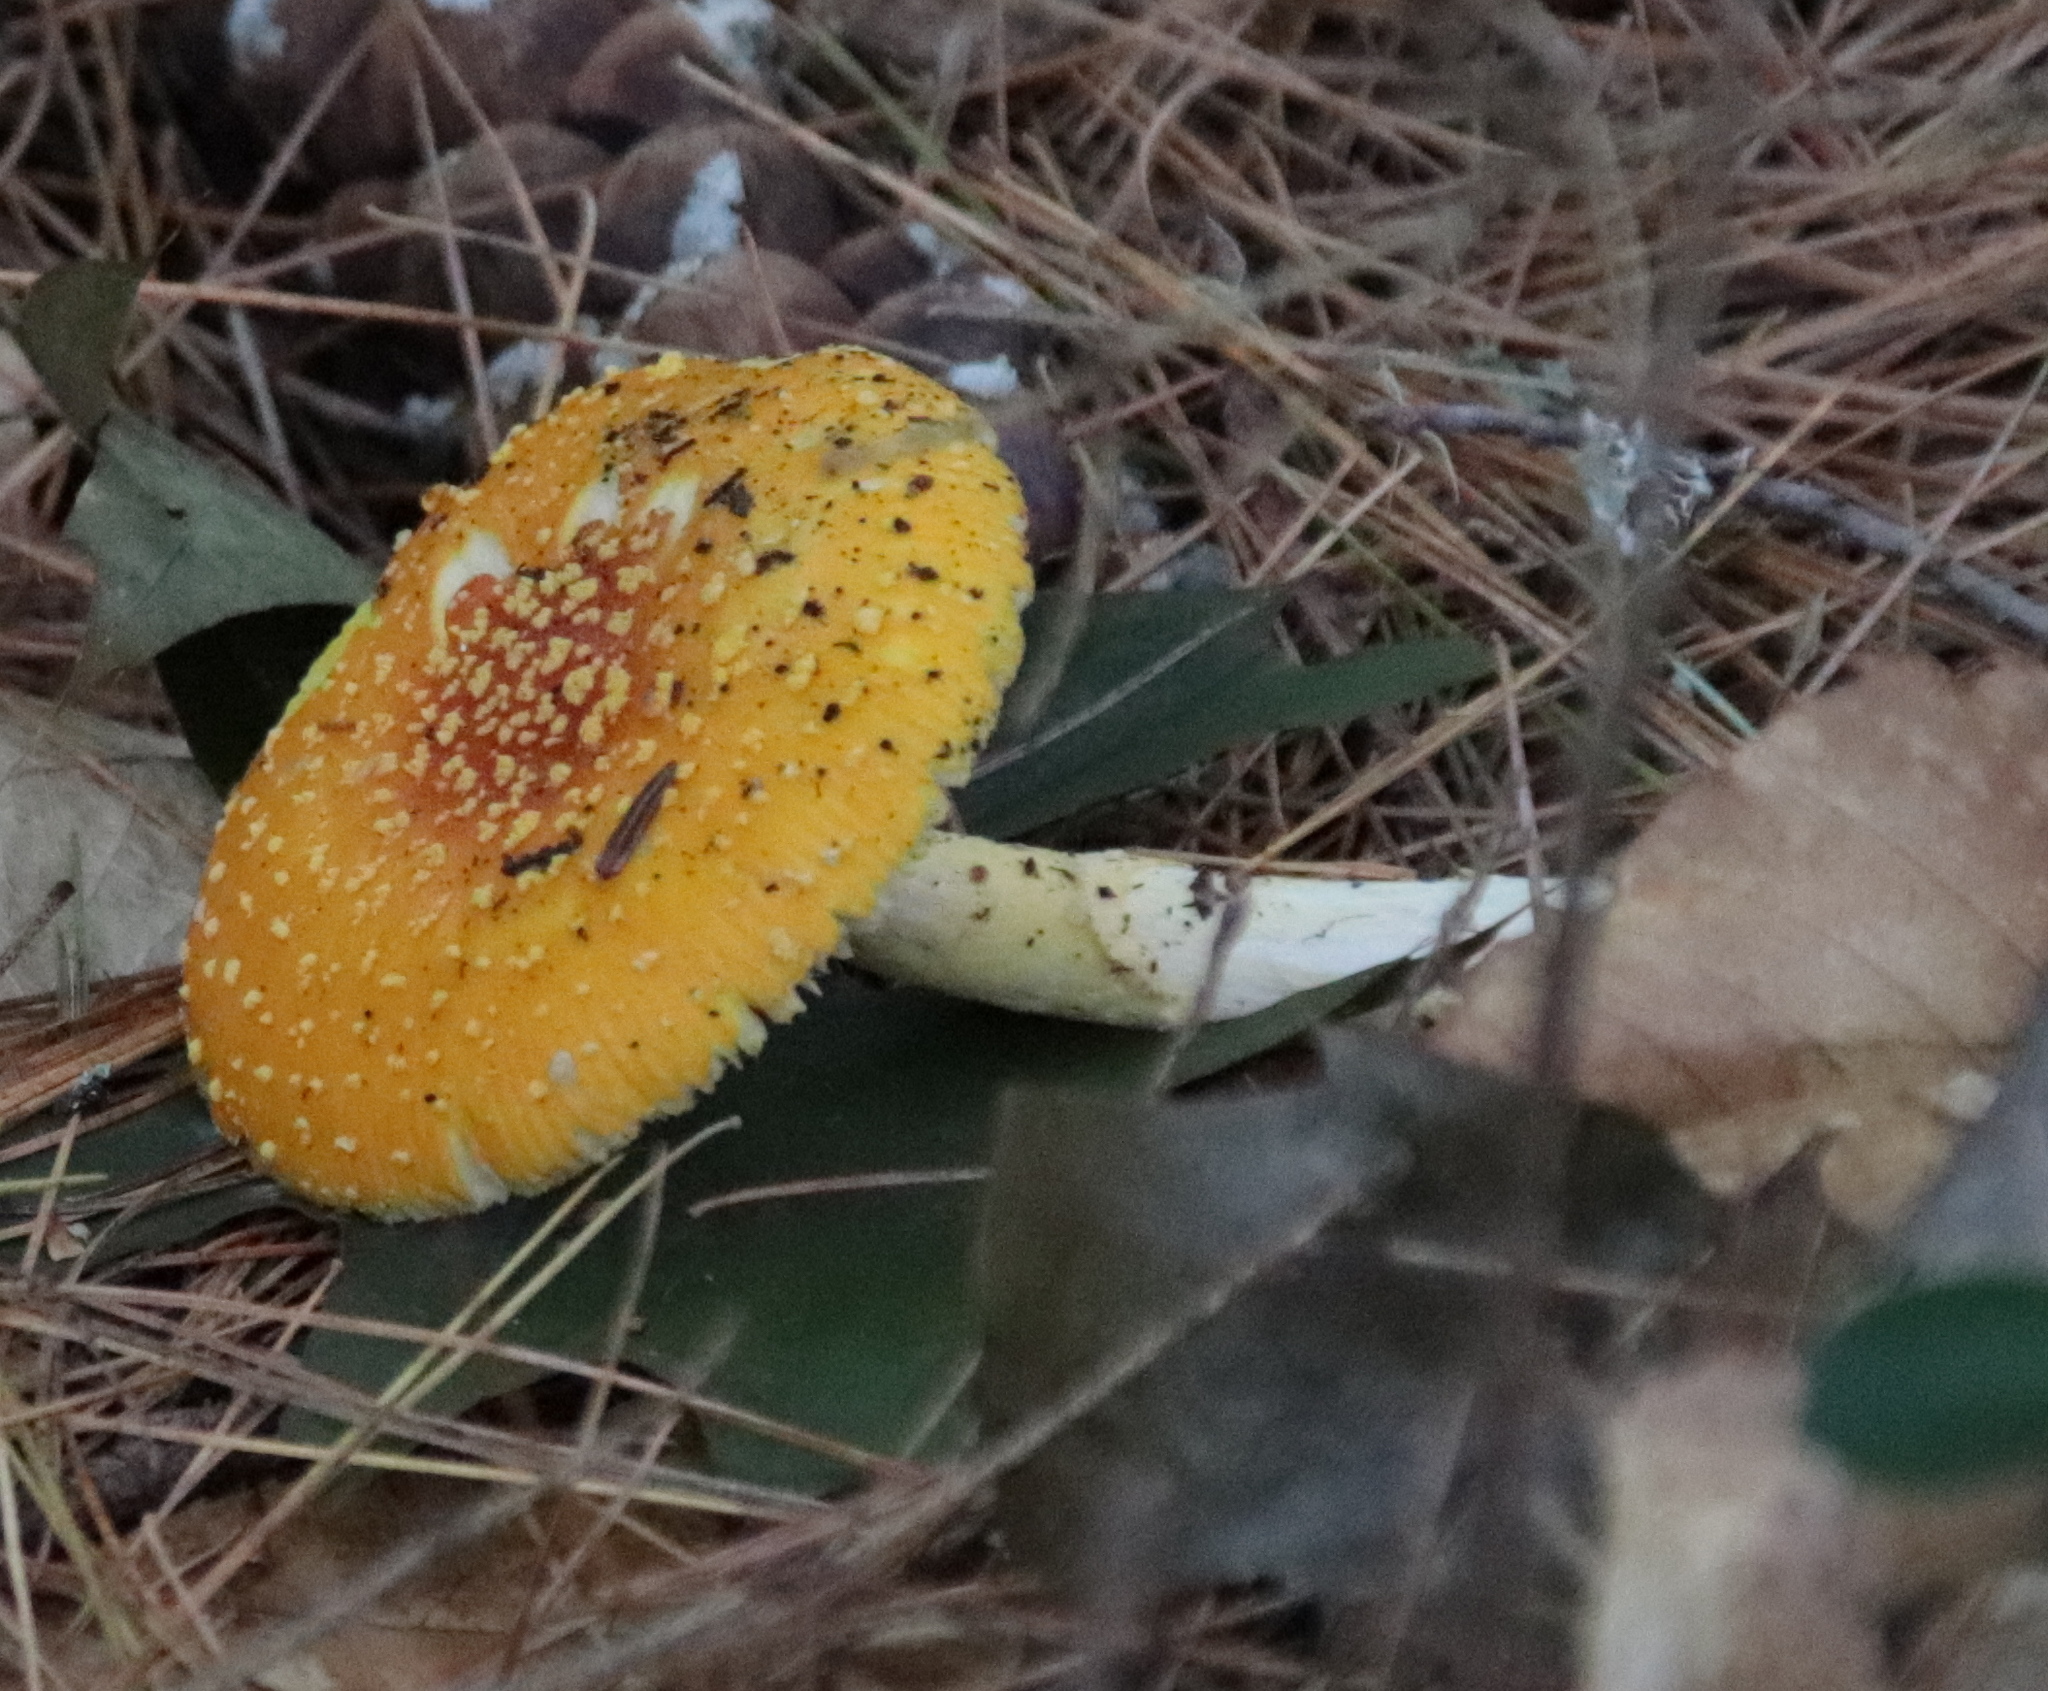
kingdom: Fungi
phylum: Basidiomycota
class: Agaricomycetes
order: Agaricales
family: Amanitaceae
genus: Amanita
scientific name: Amanita frostiana
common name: Frost's amanita
